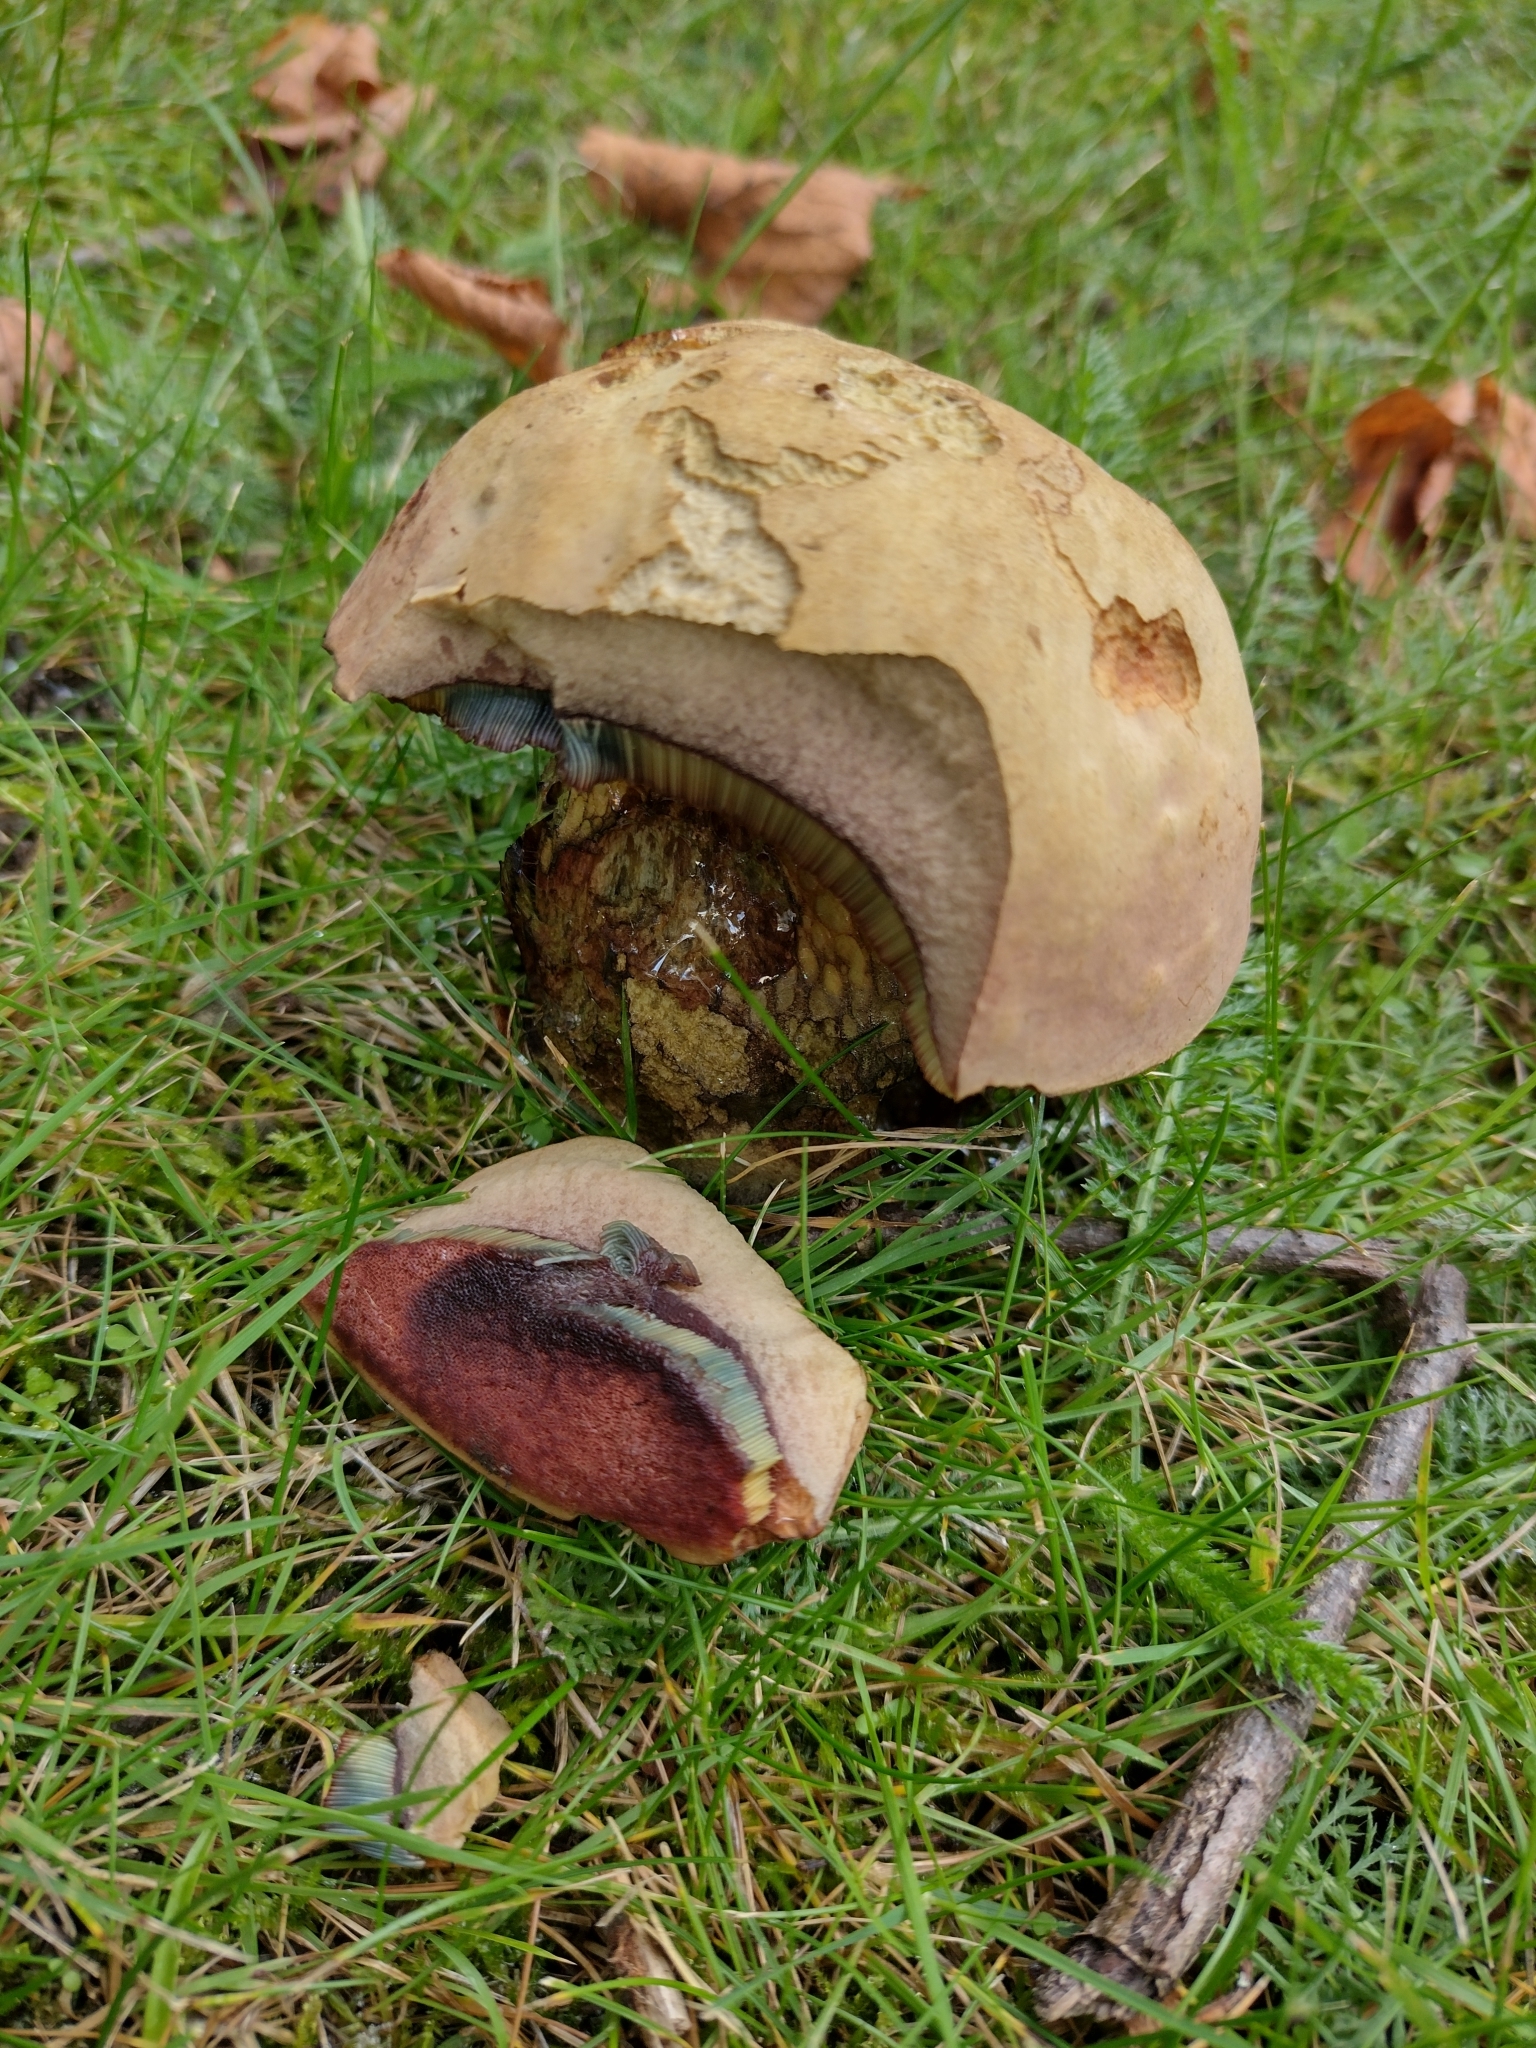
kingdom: Fungi
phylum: Basidiomycota
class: Agaricomycetes
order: Boletales
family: Boletaceae
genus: Suillellus
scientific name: Suillellus luridus
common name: Lurid bolete
